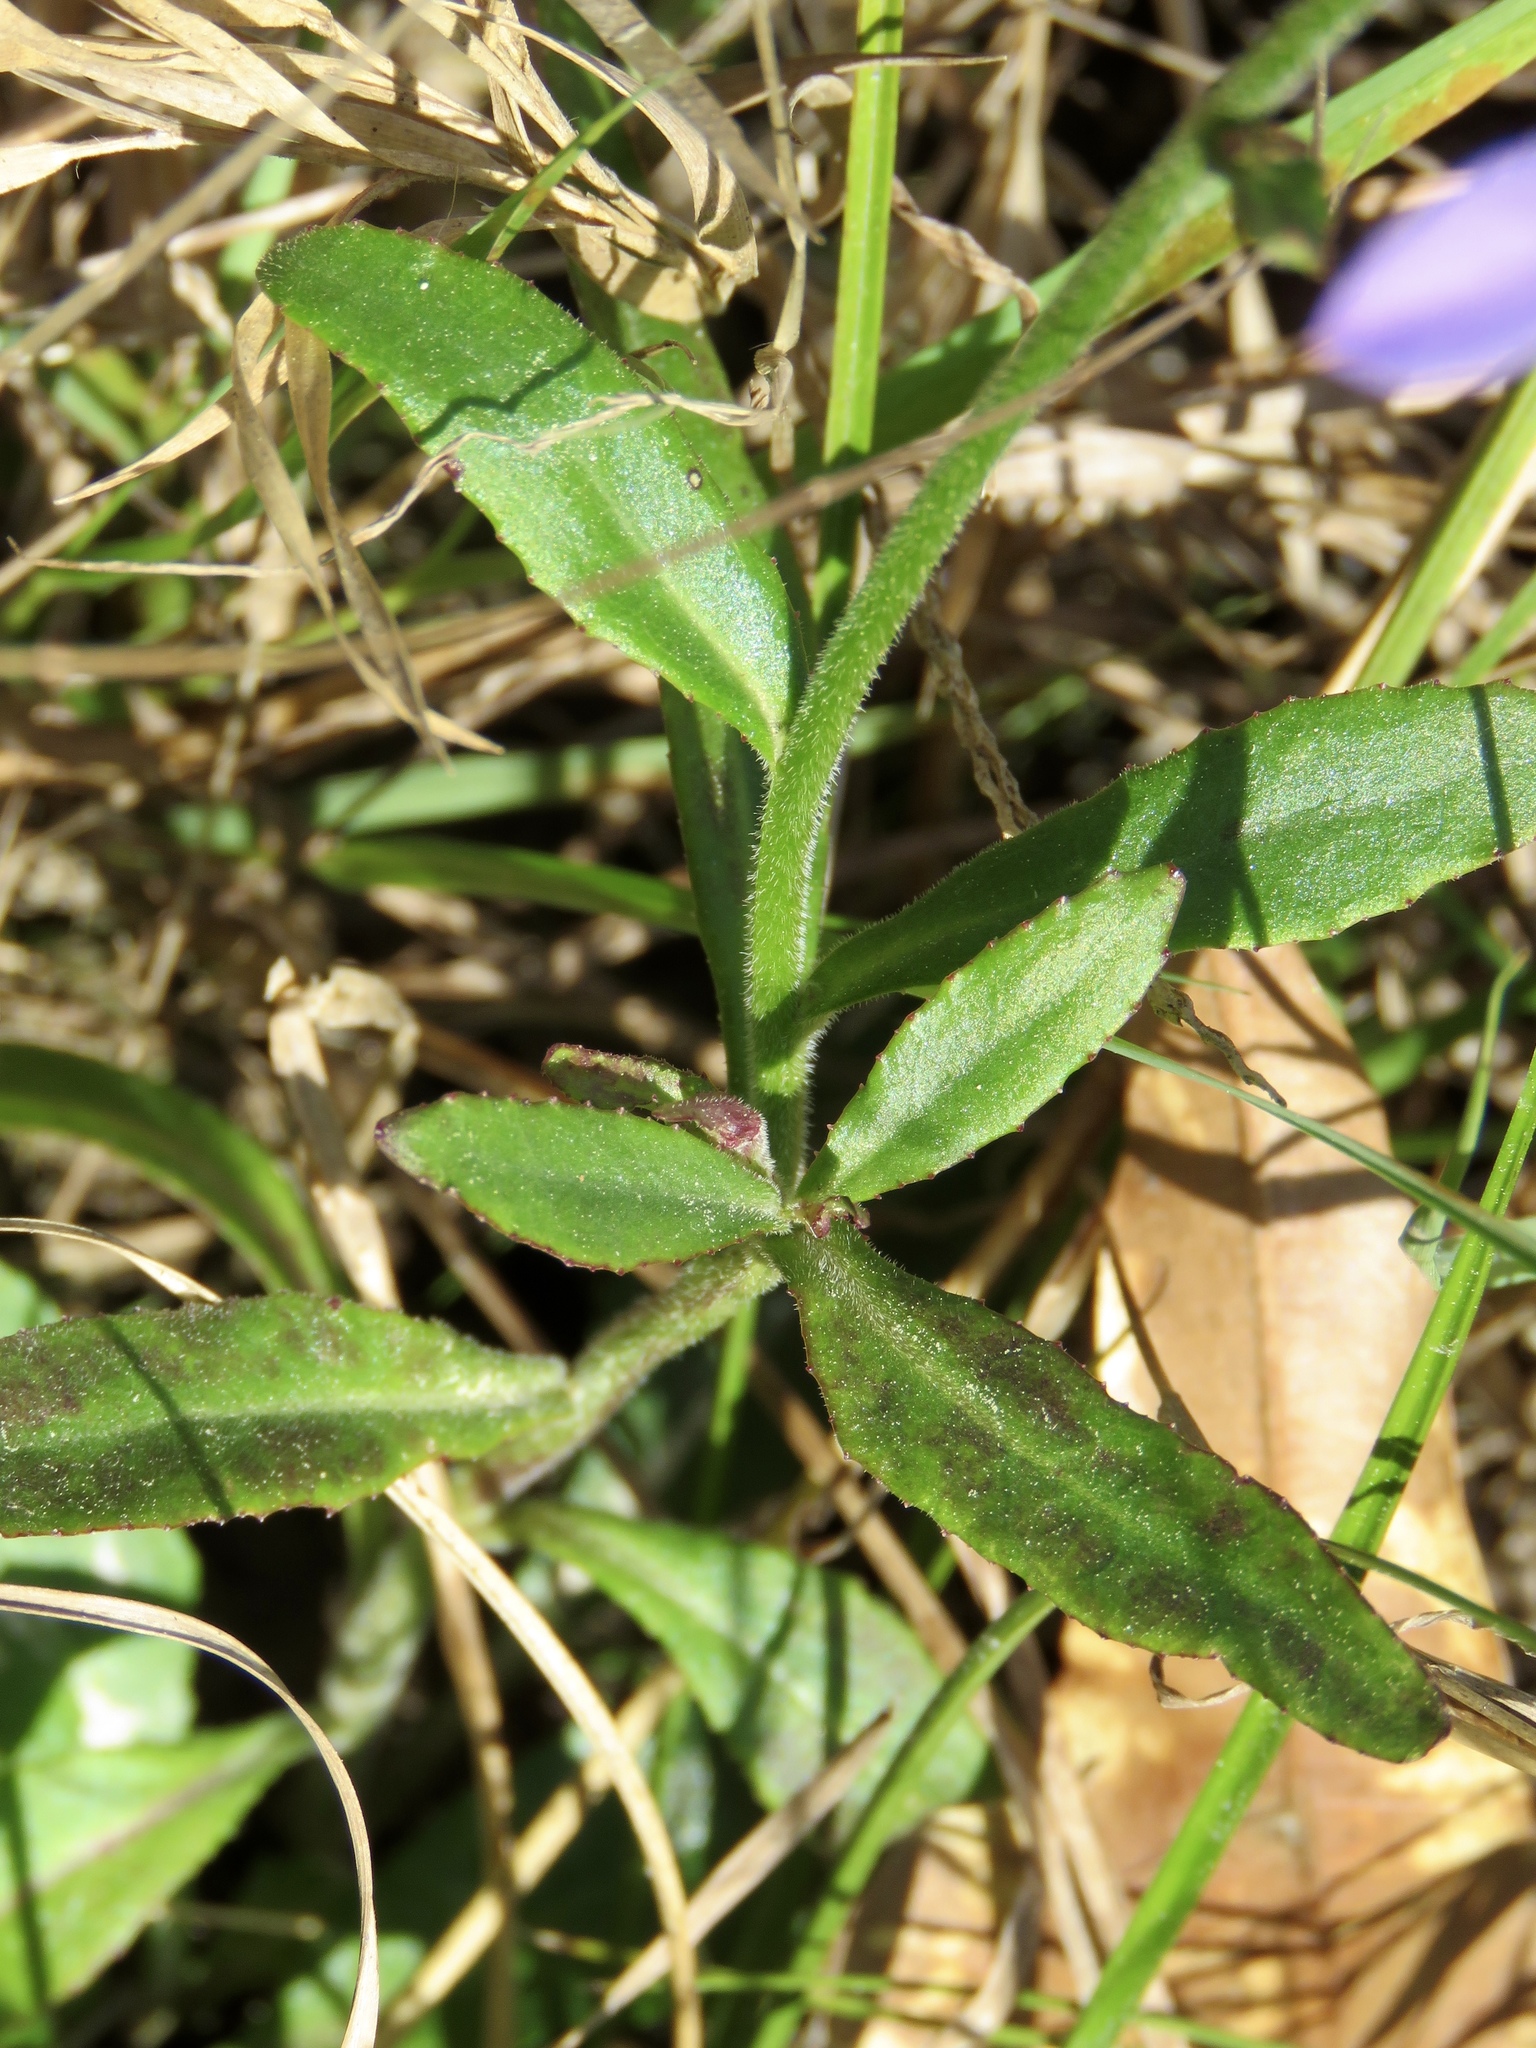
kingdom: Plantae
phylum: Tracheophyta
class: Magnoliopsida
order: Asterales
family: Campanulaceae
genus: Lobelia
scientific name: Lobelia puberula
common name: Purple dewdrop
